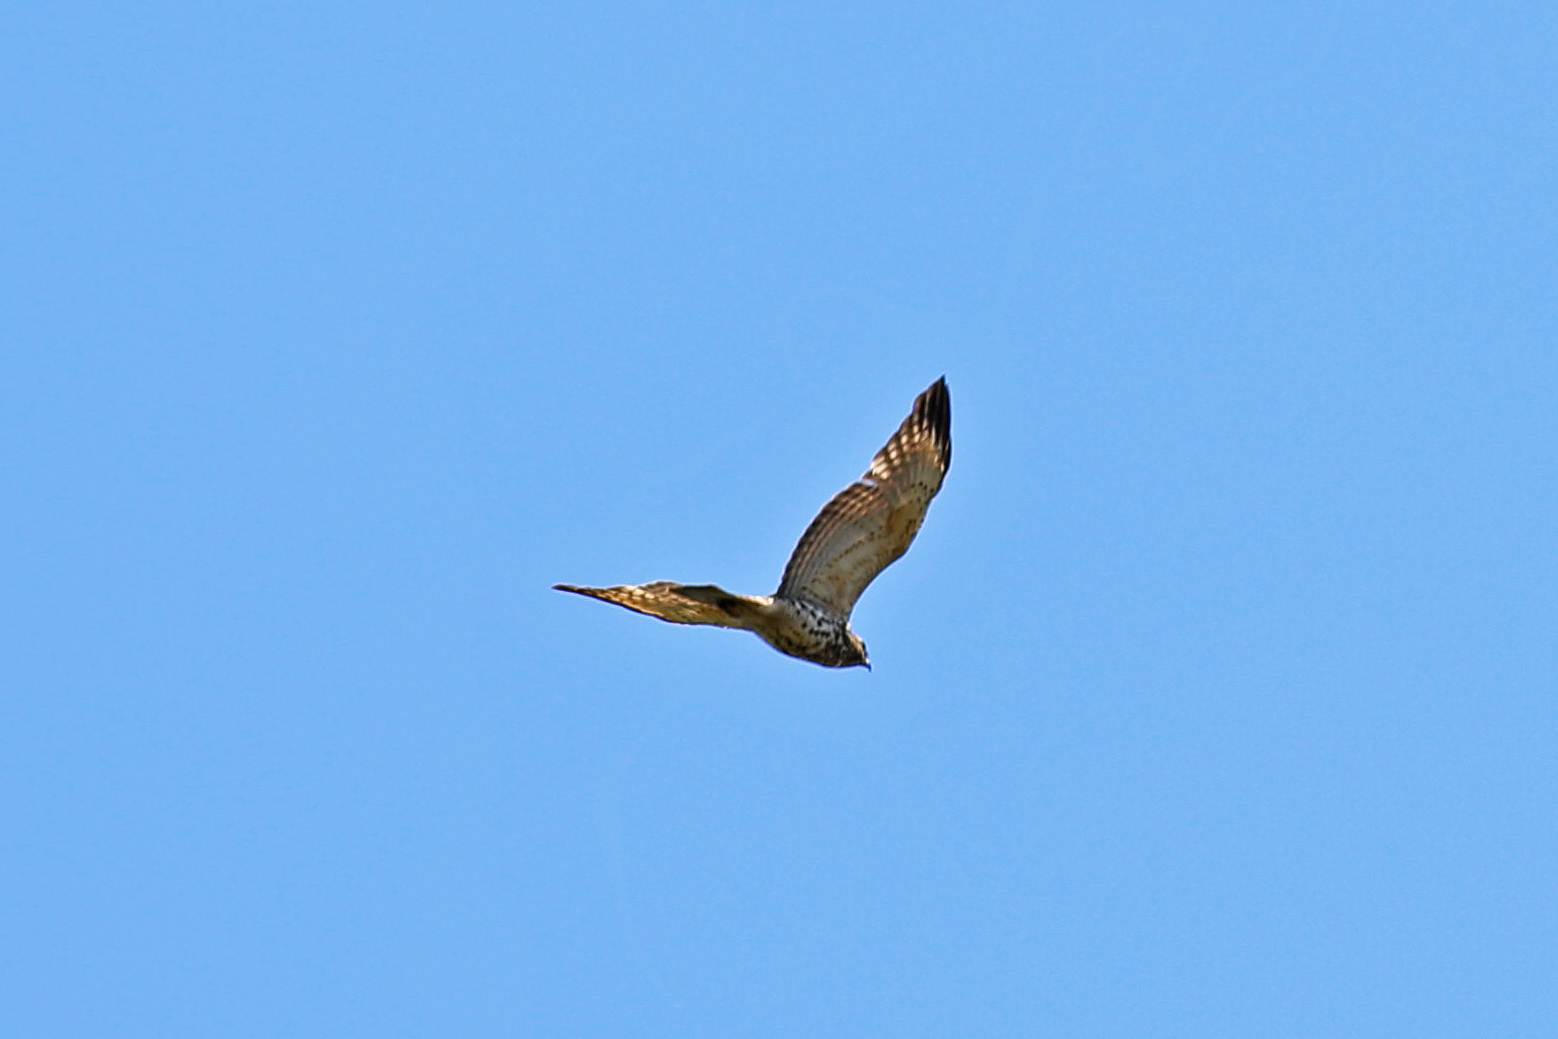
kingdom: Animalia
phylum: Chordata
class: Aves
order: Accipitriformes
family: Accipitridae
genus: Buteo
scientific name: Buteo lineatus
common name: Red-shouldered hawk
